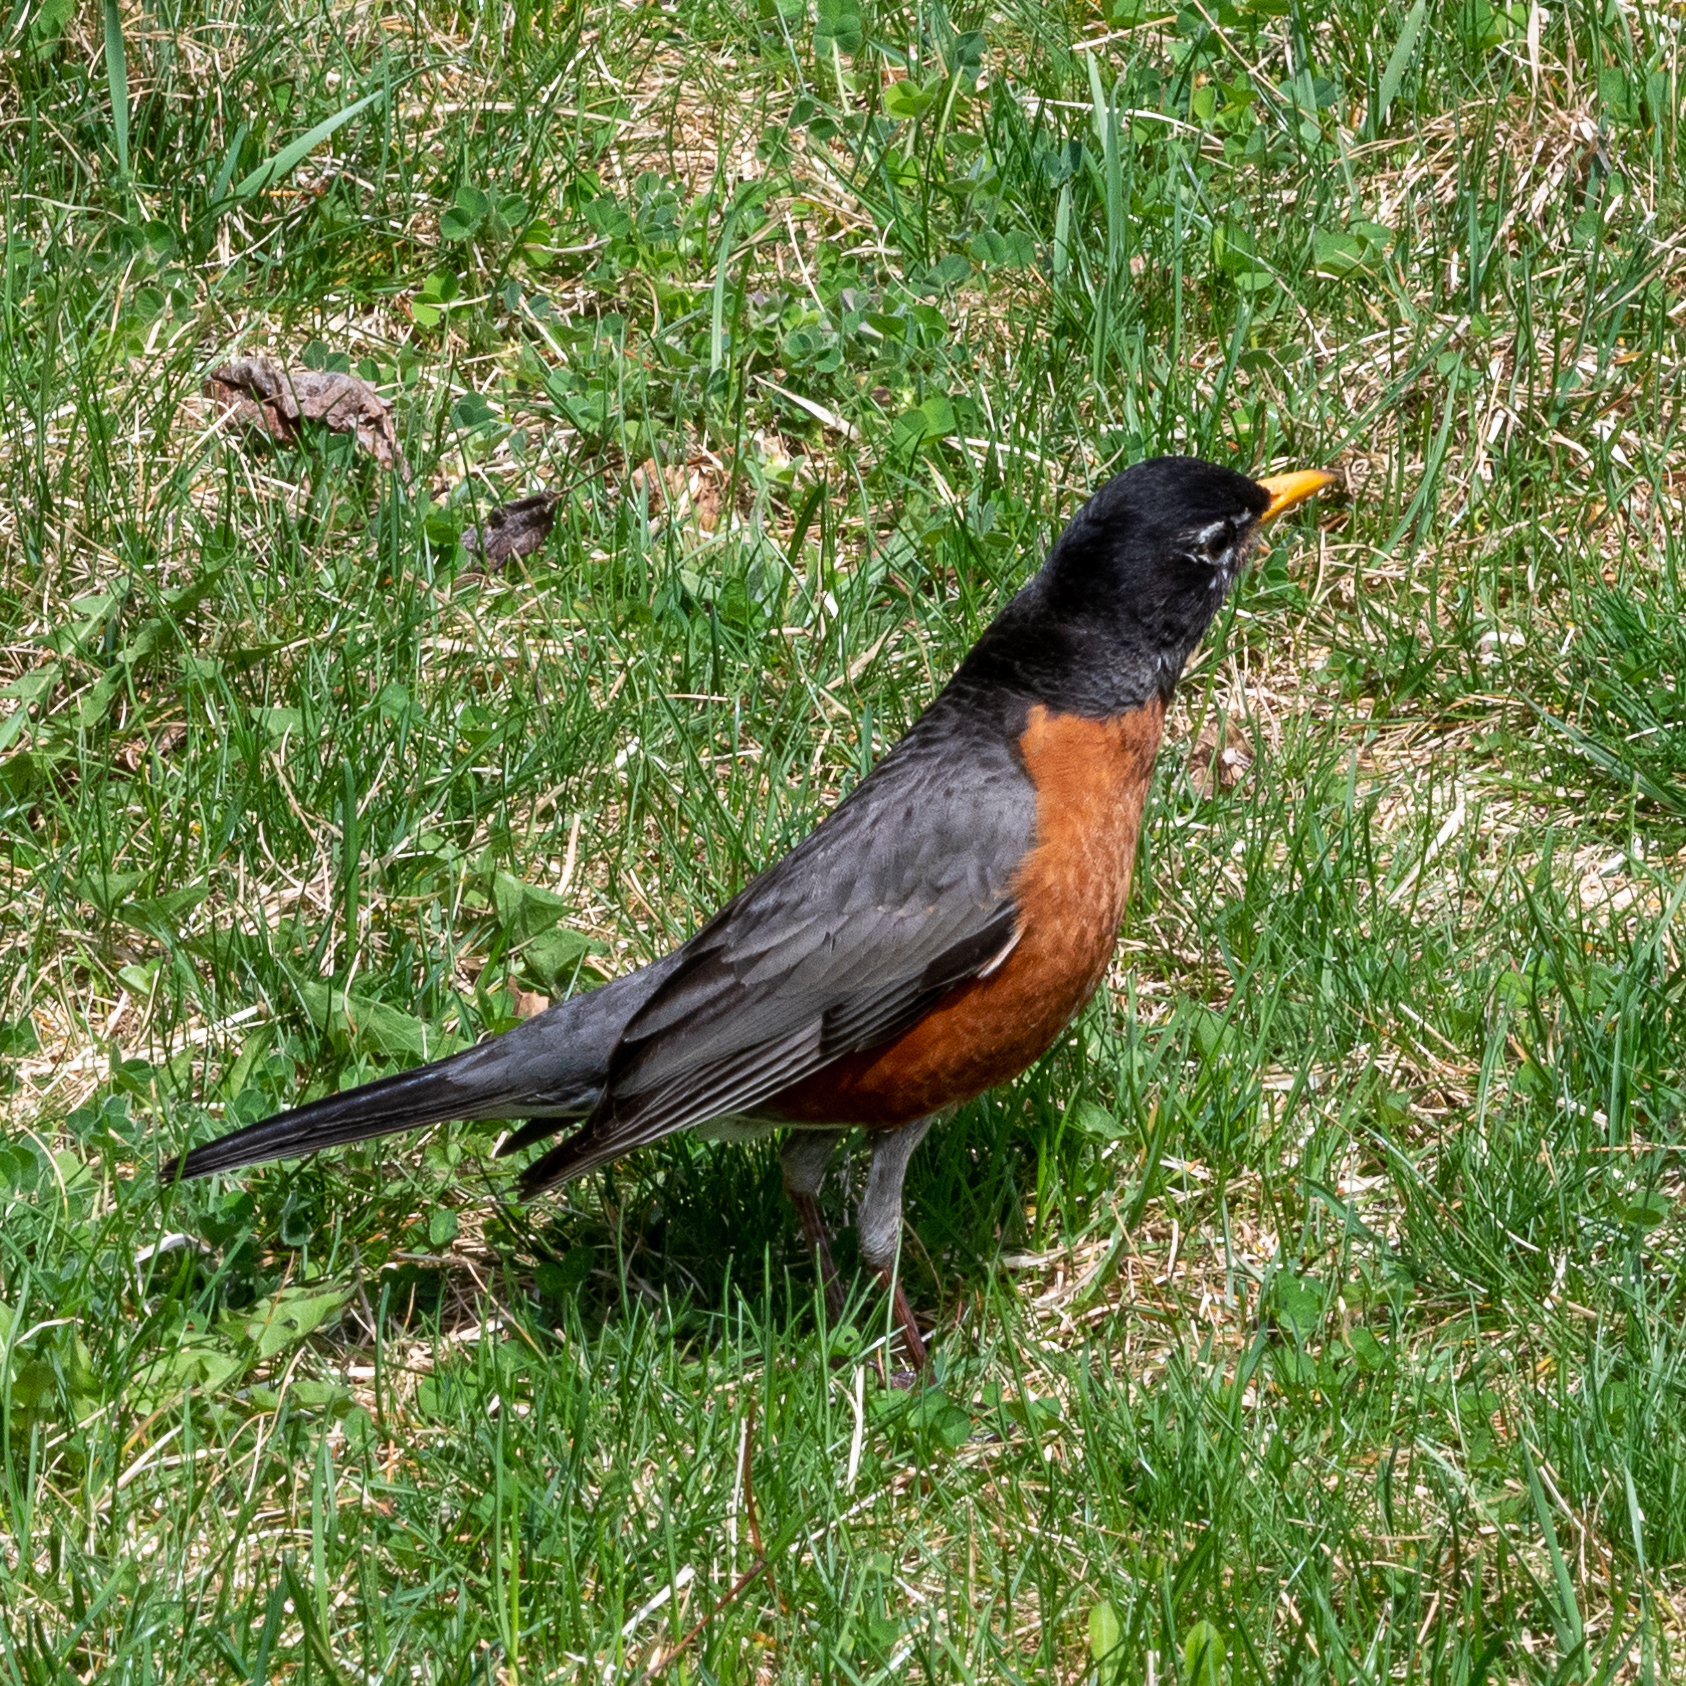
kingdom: Animalia
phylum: Chordata
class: Aves
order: Passeriformes
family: Turdidae
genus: Turdus
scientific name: Turdus migratorius
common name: American robin
